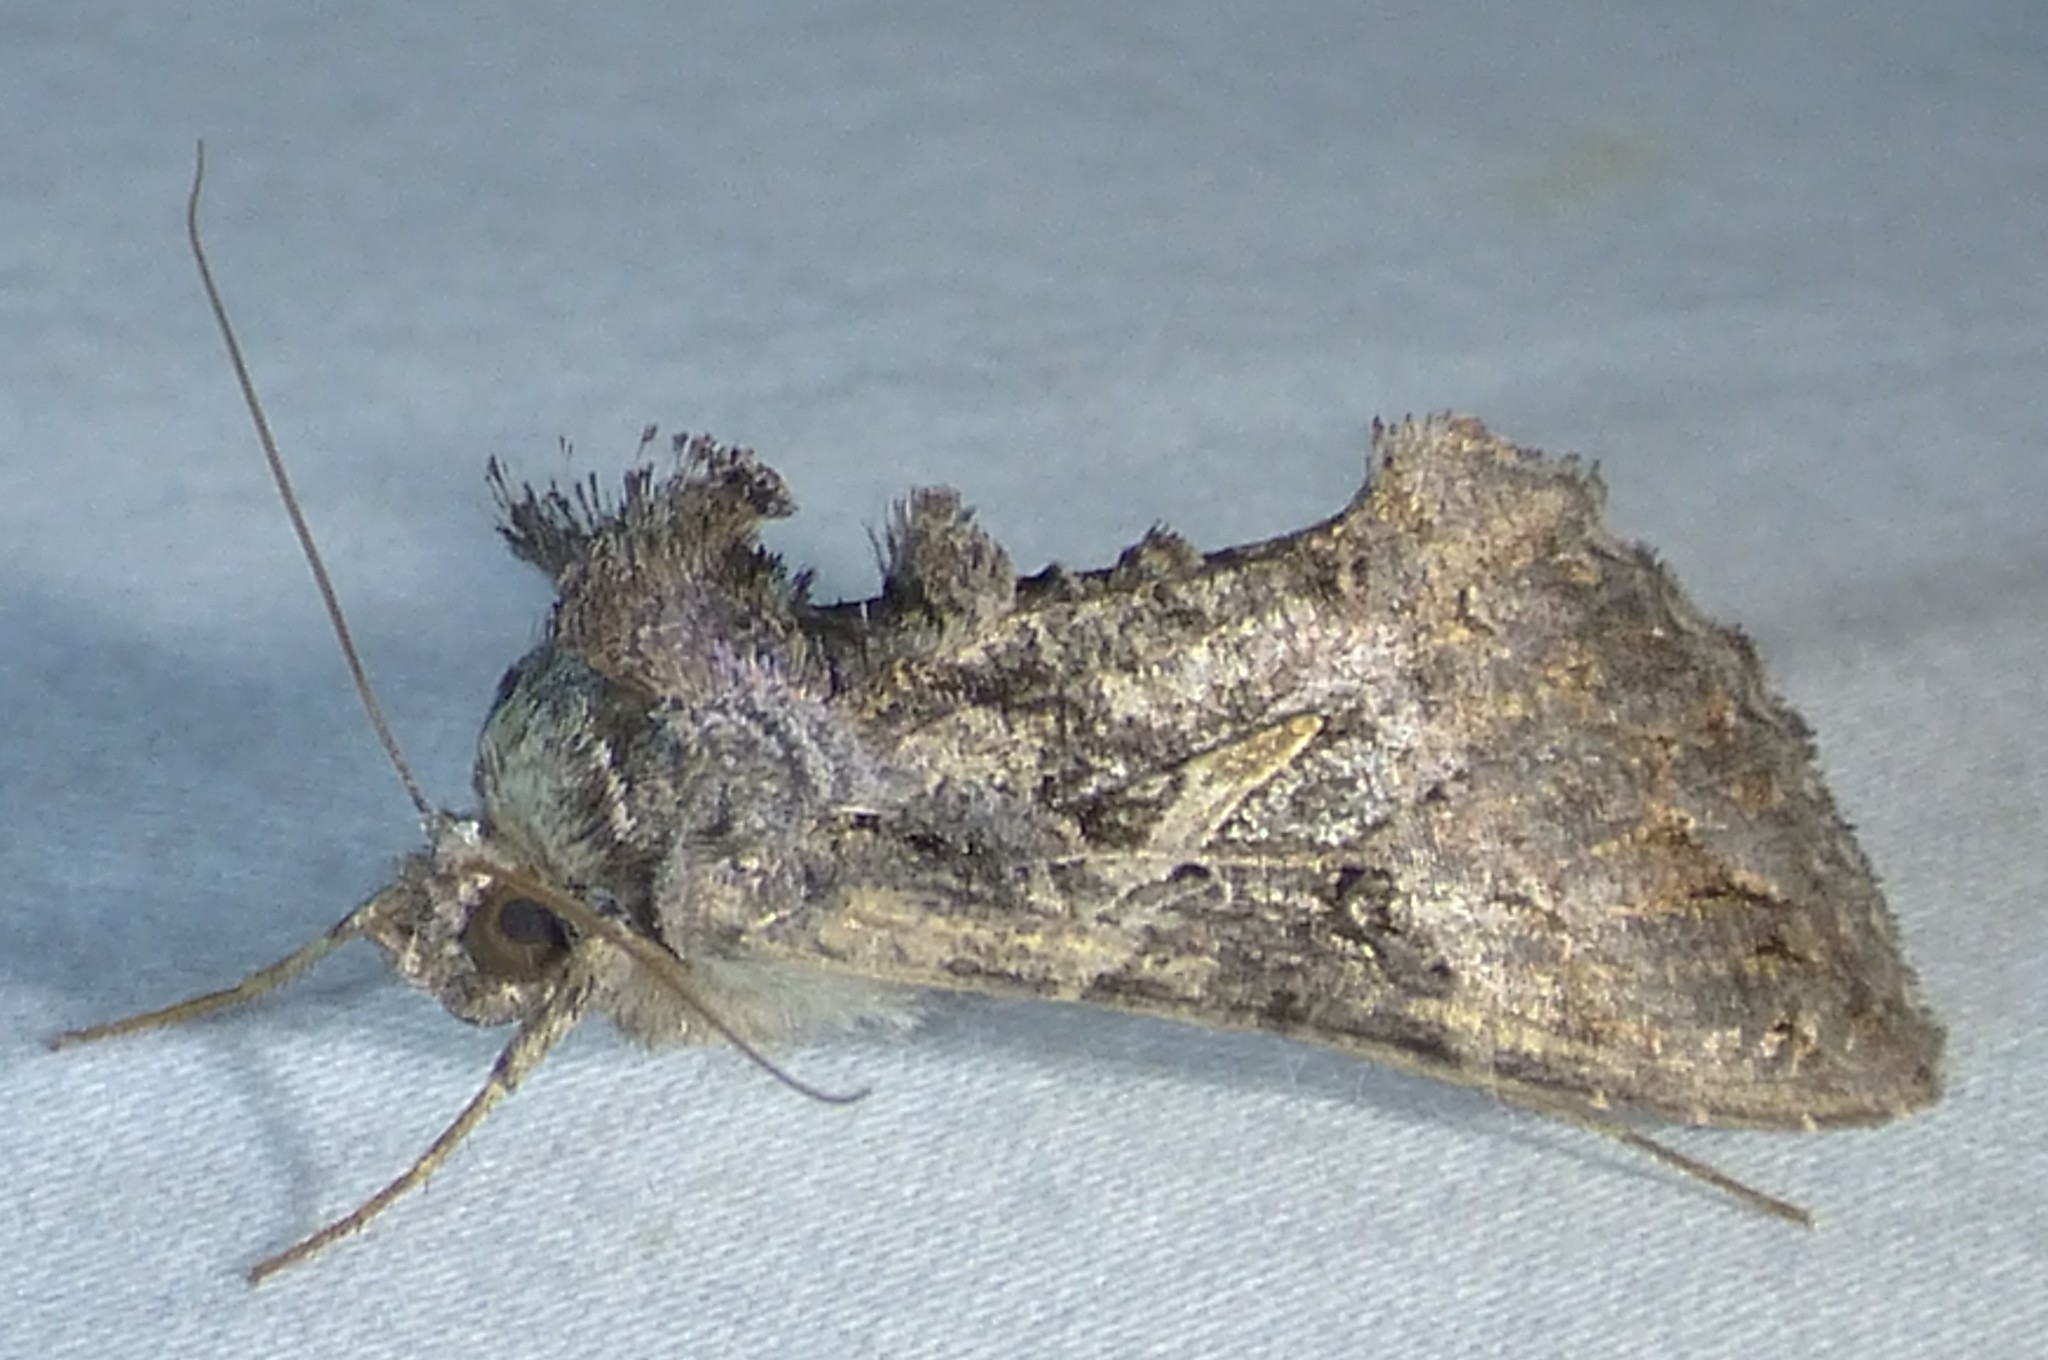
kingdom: Animalia
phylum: Arthropoda
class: Insecta
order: Lepidoptera
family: Noctuidae
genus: Ctenoplusia
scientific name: Ctenoplusia oxygramma
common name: Sharp-stigma looper moth
